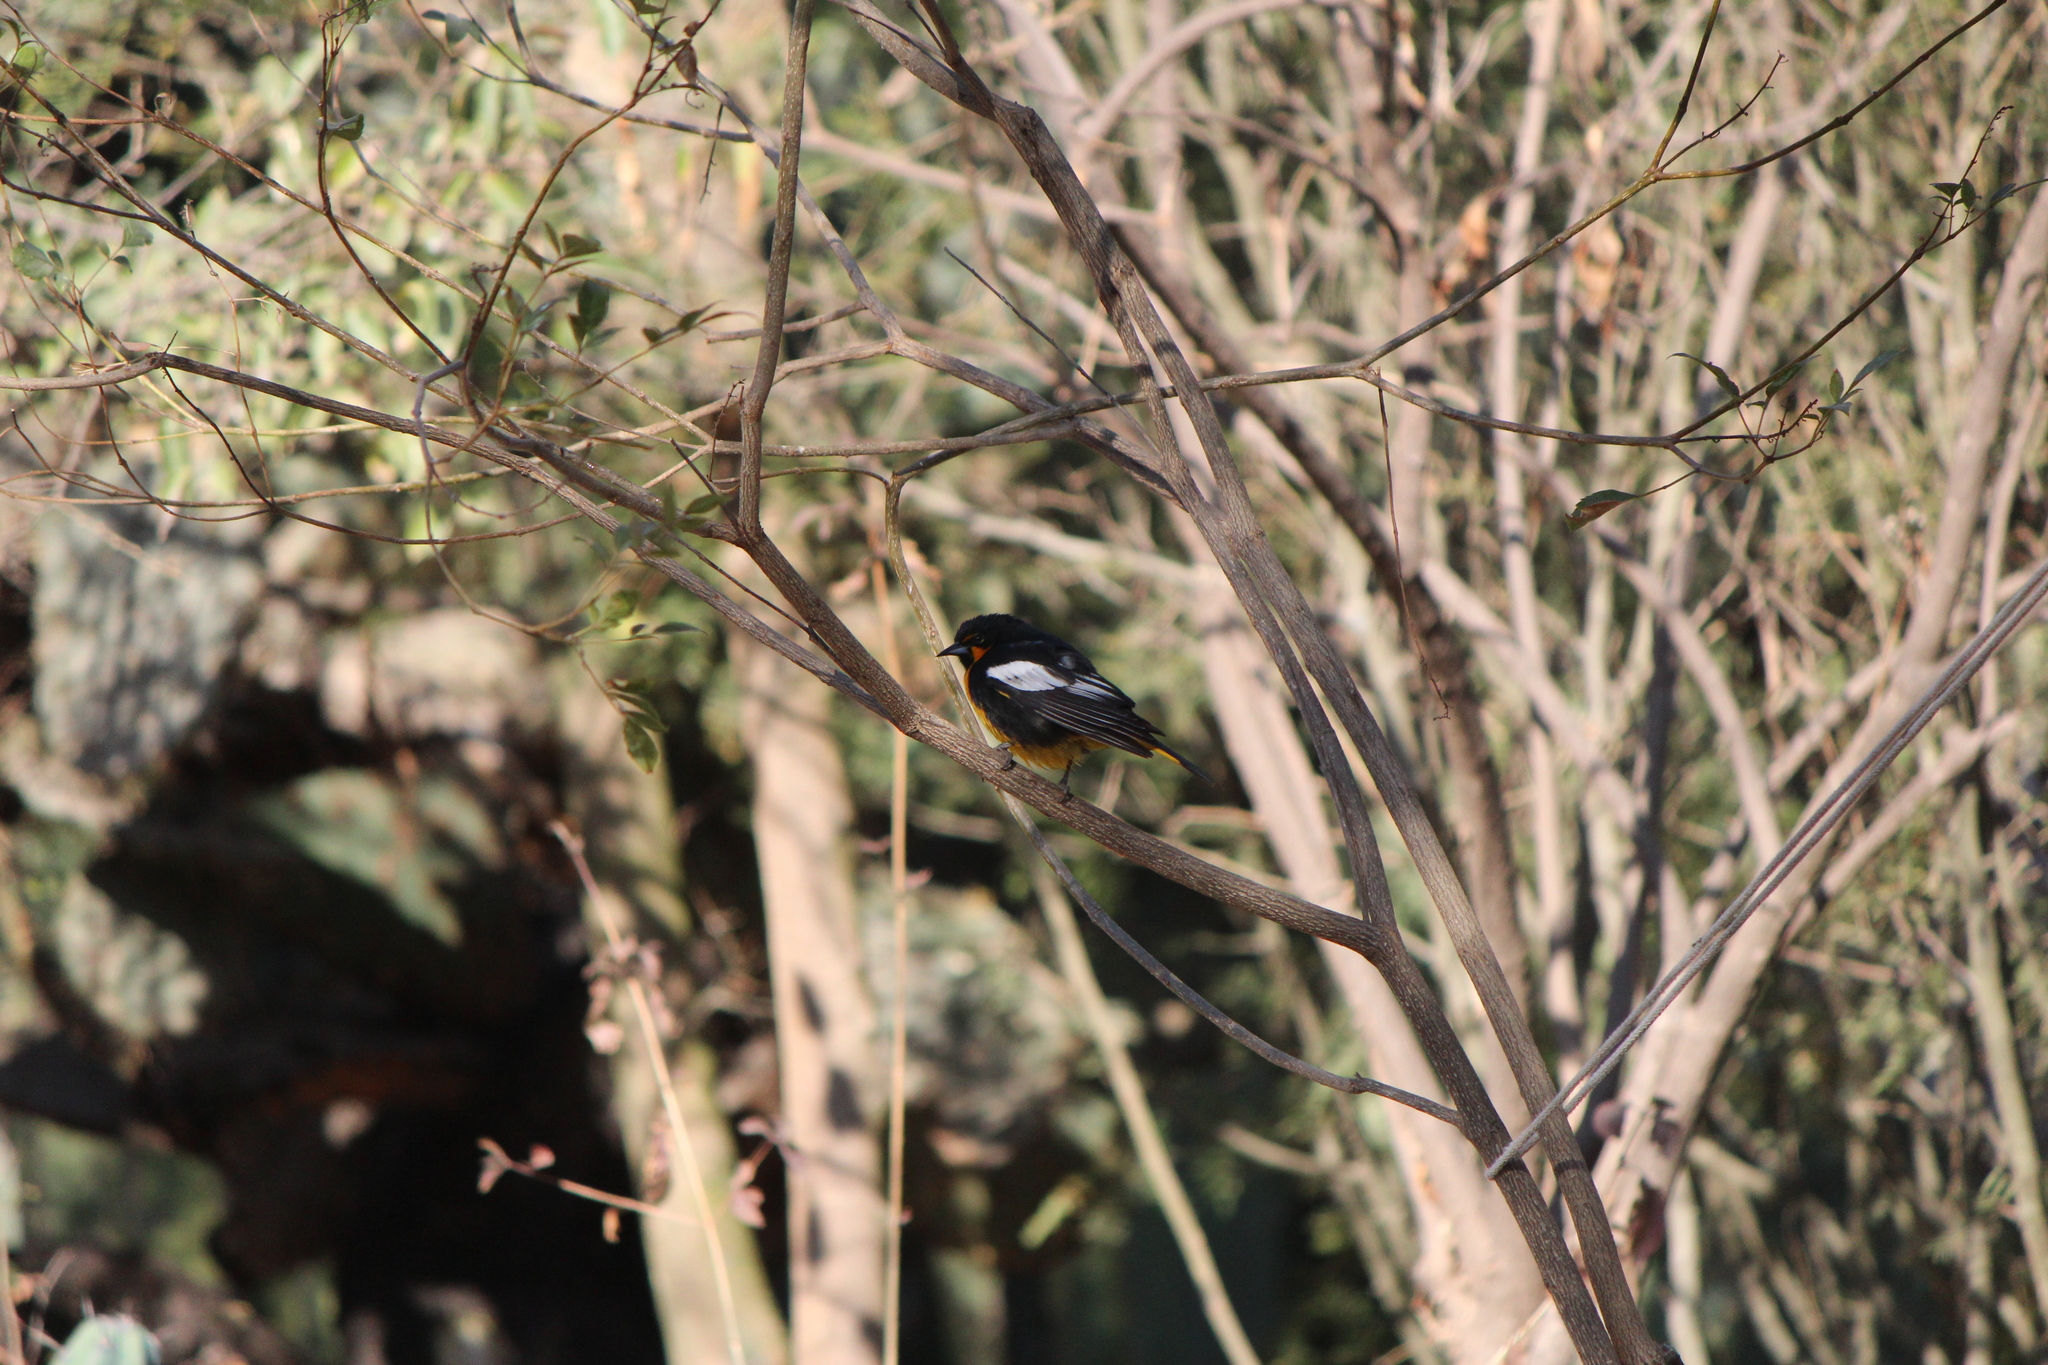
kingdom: Animalia
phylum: Chordata
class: Aves
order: Passeriformes
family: Icteridae
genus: Icterus
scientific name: Icterus abeillei
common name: Black-backed oriole
